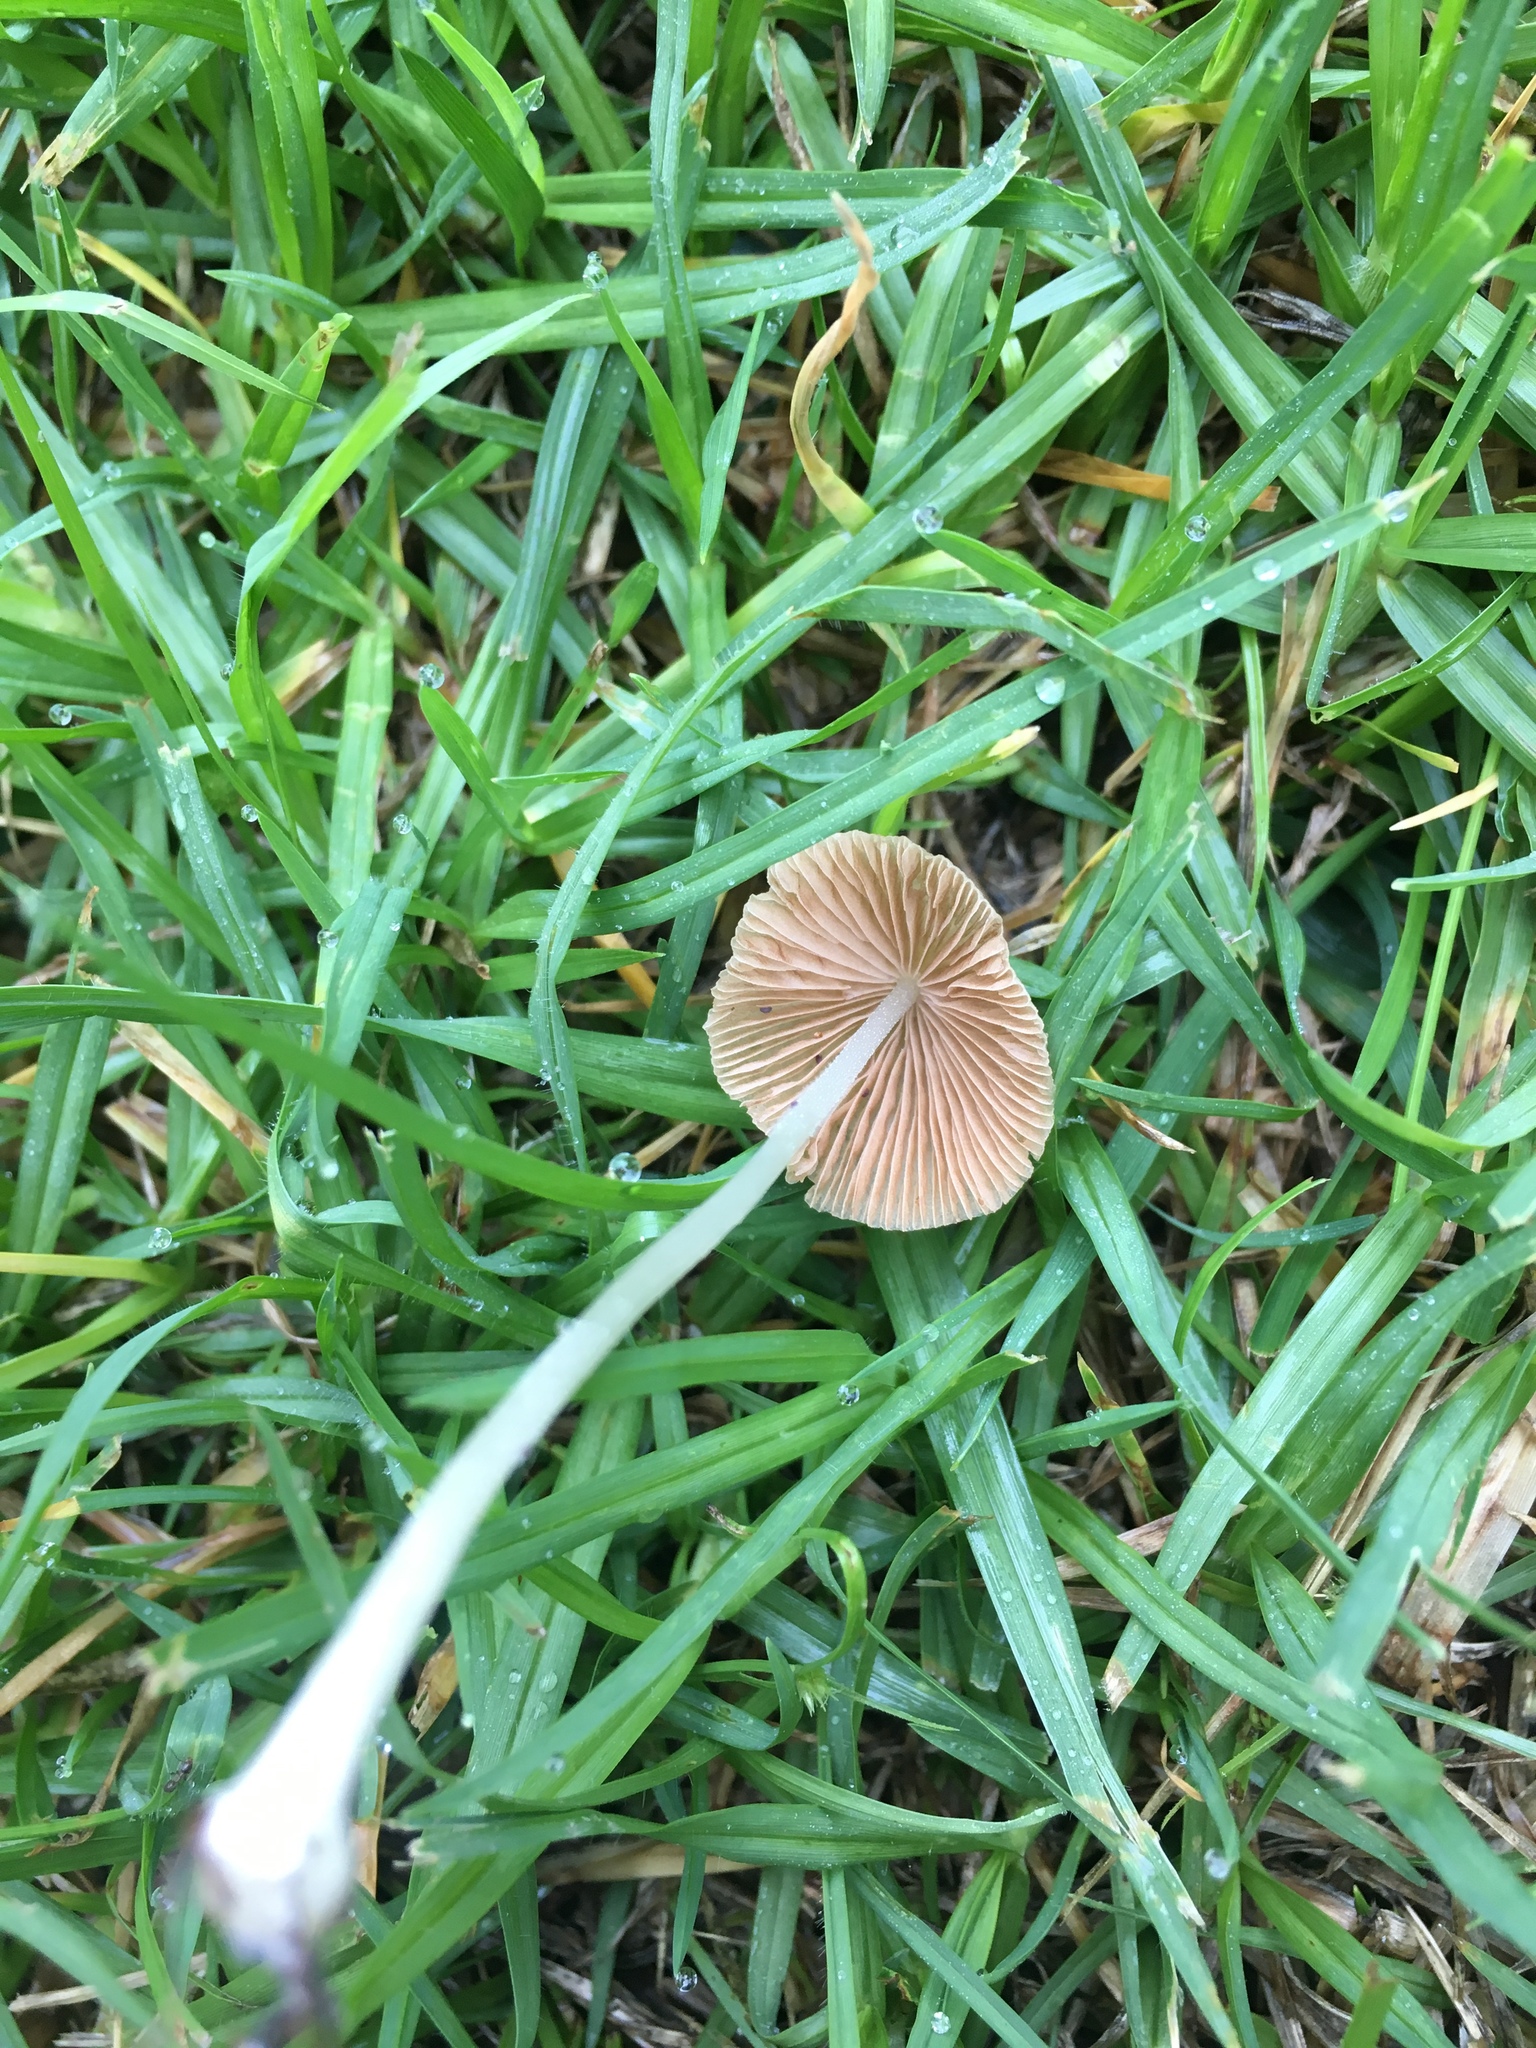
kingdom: Fungi
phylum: Basidiomycota
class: Agaricomycetes
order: Agaricales
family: Bolbitiaceae
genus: Conocybe
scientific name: Conocybe apala
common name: Milky conecap
